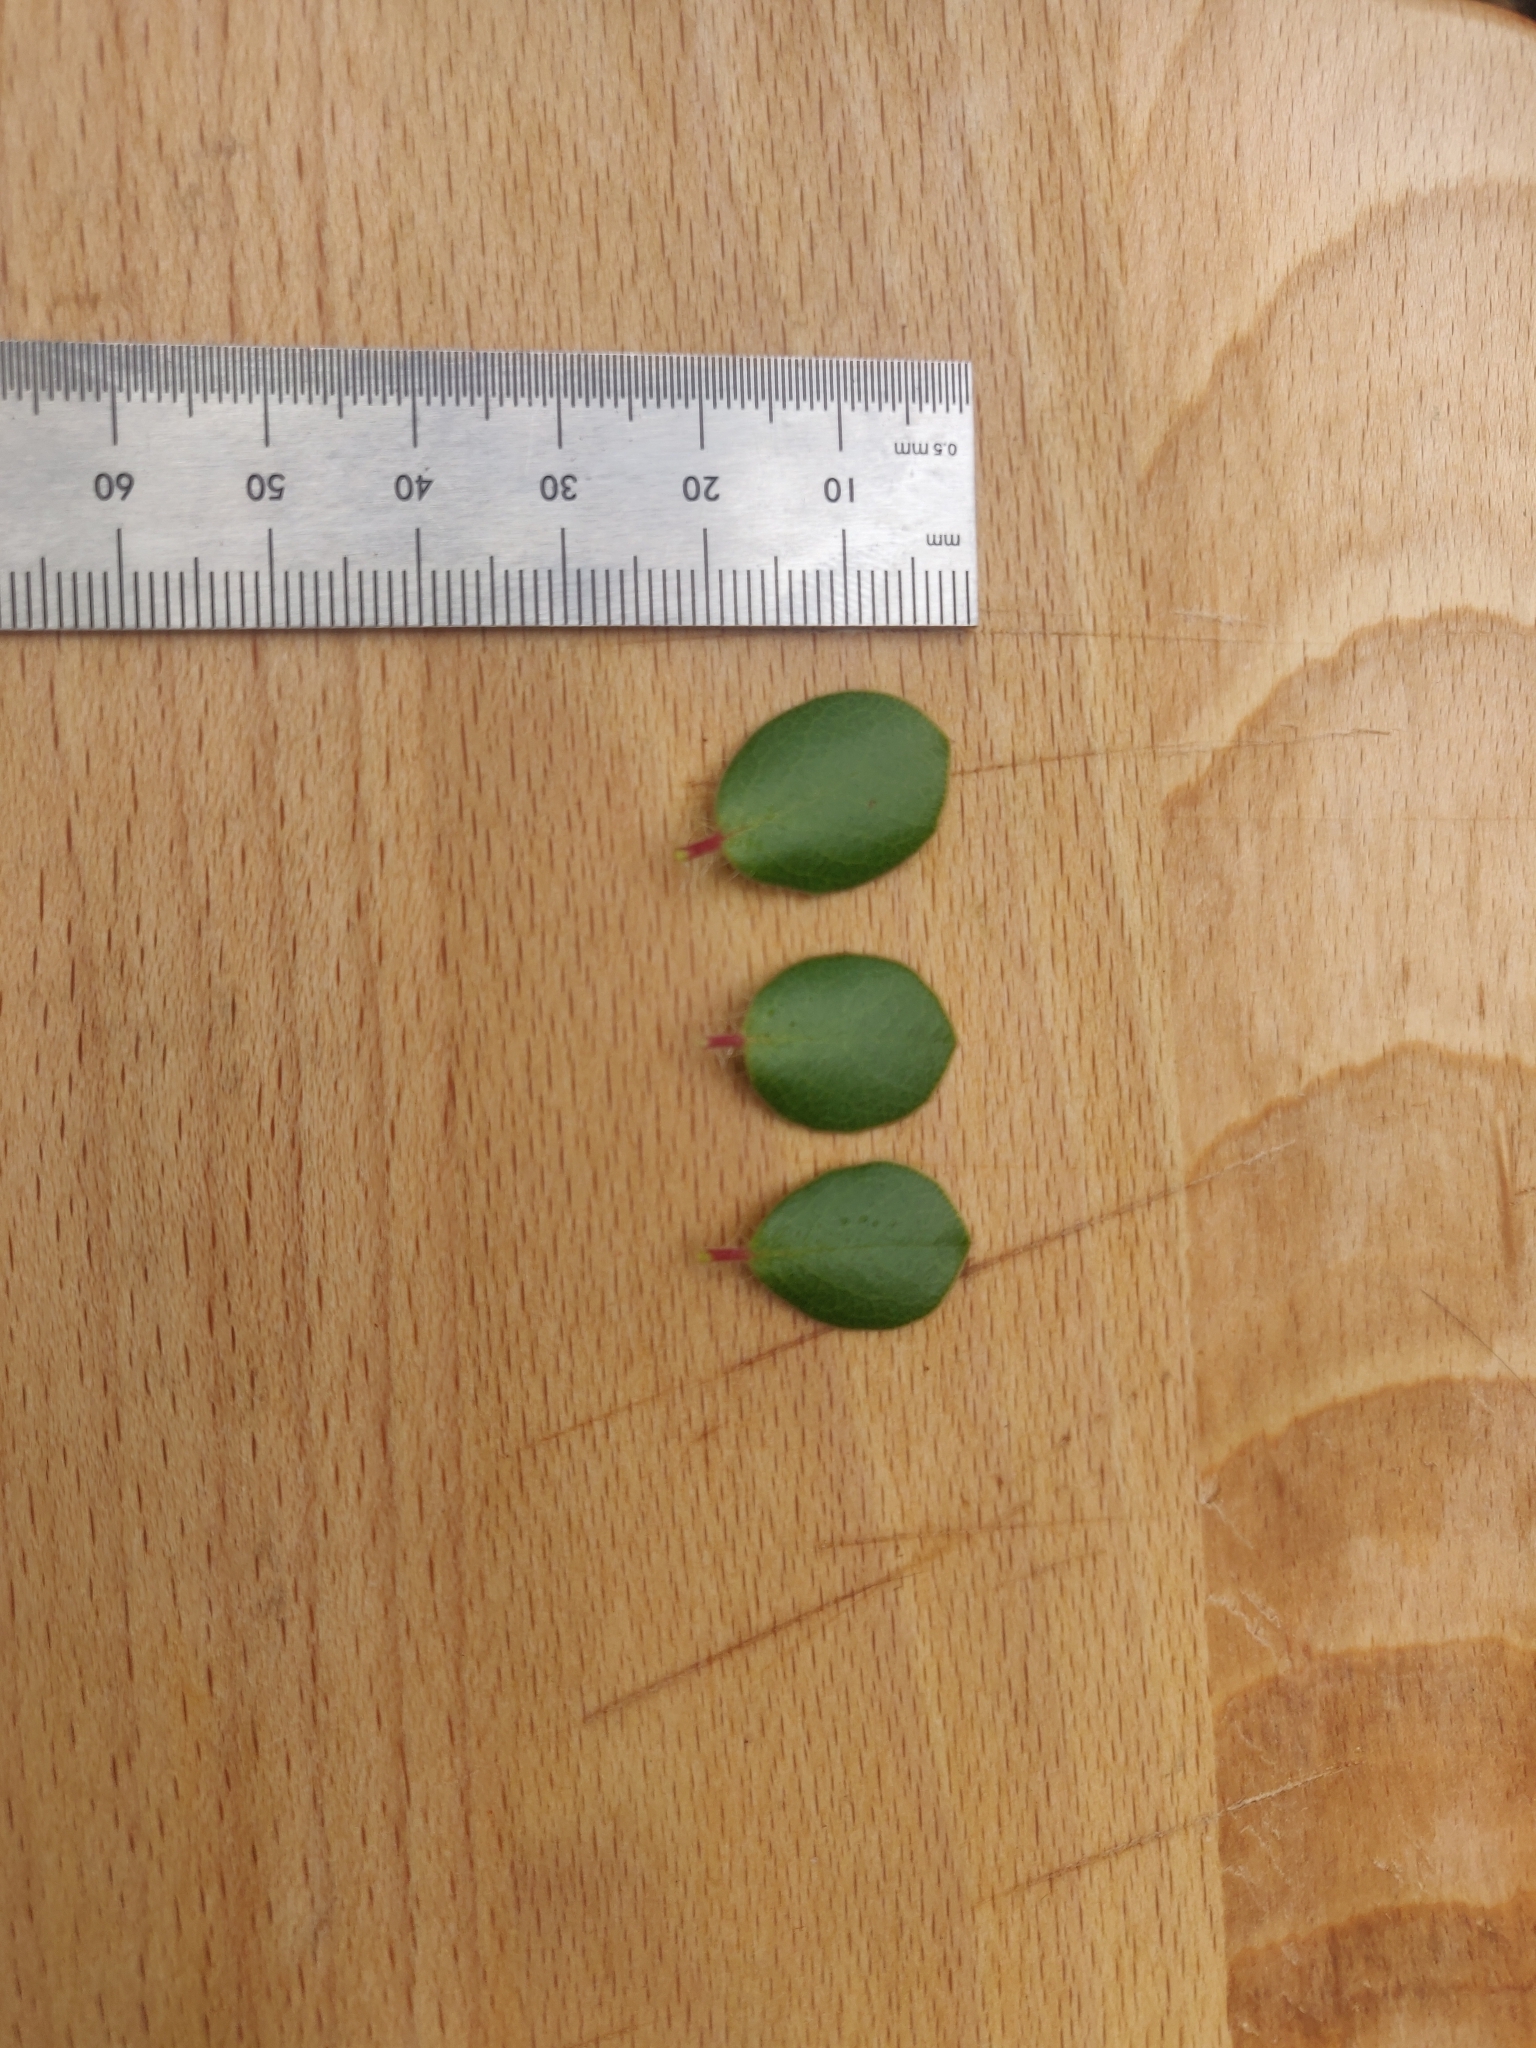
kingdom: Plantae
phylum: Tracheophyta
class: Magnoliopsida
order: Ericales
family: Ericaceae
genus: Arctostaphylos
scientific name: Arctostaphylos nummularia
